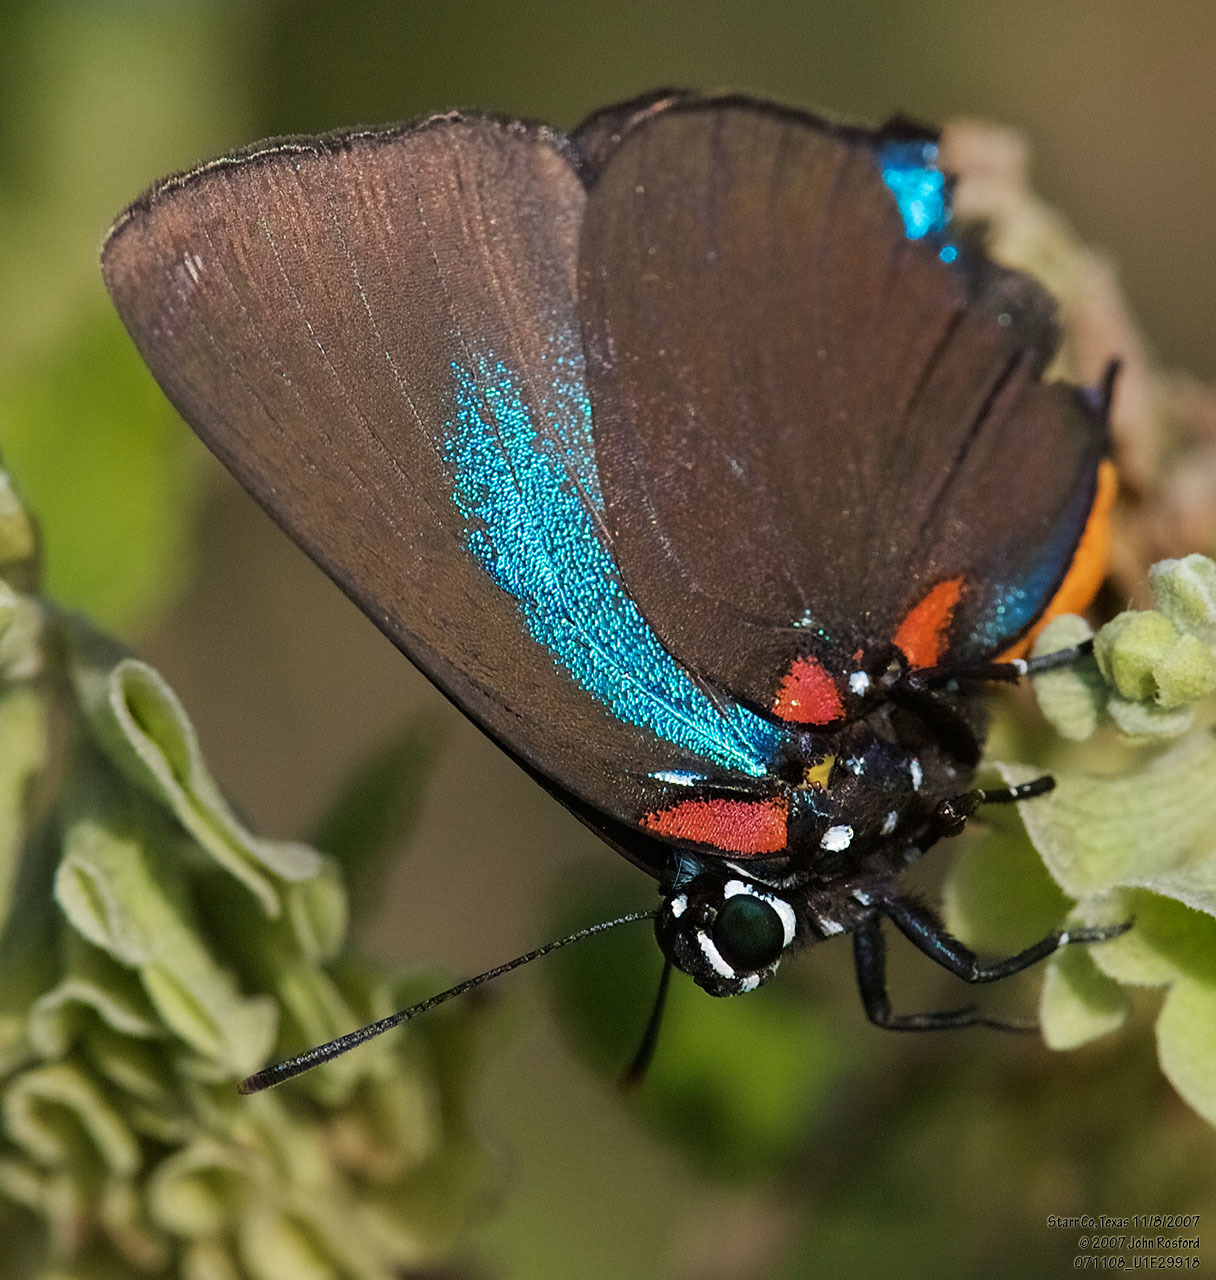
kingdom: Animalia
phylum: Arthropoda
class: Insecta
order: Lepidoptera
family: Lycaenidae
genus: Atlides
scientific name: Atlides halesus
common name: Great purple hairstreak
